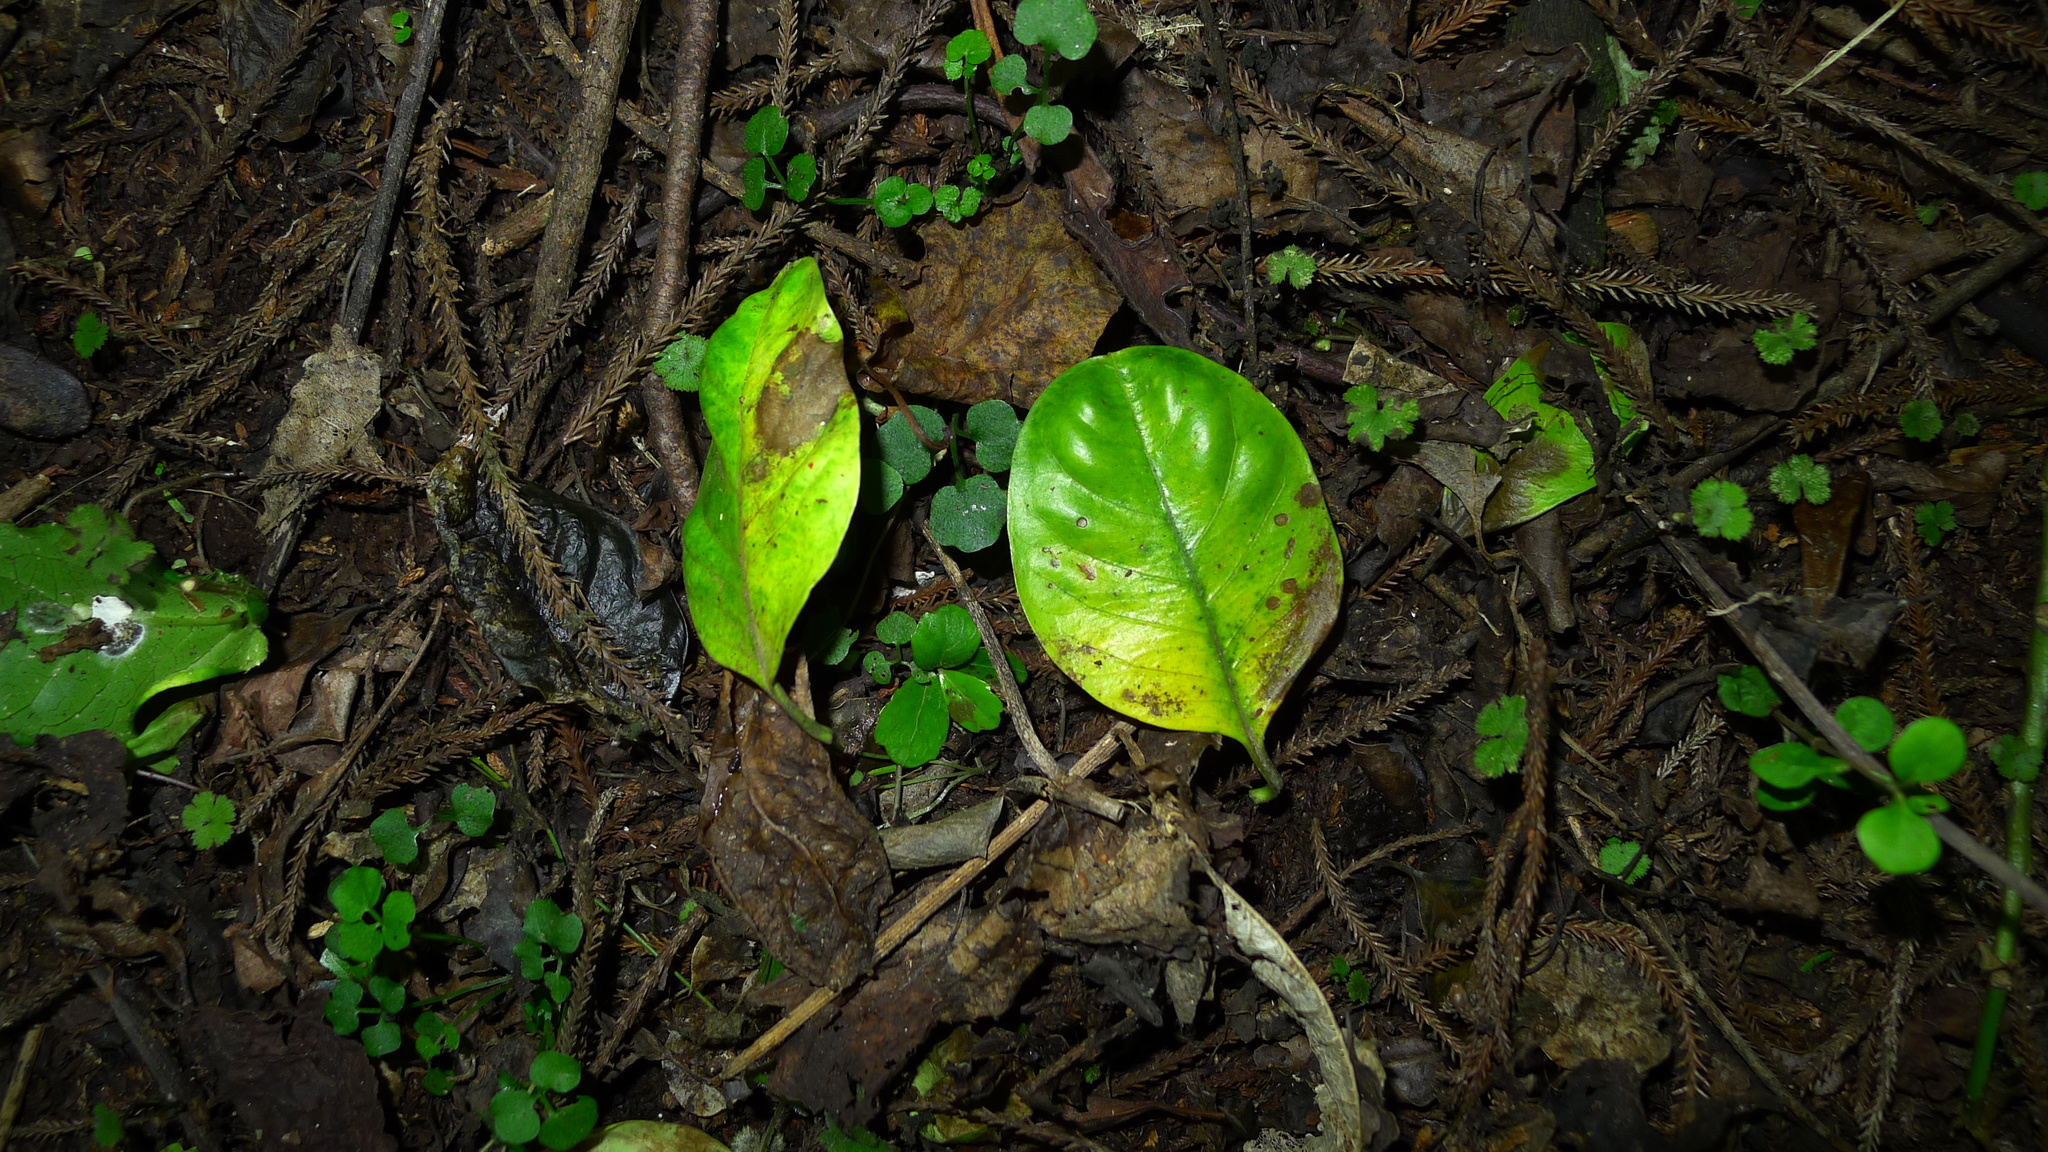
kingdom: Plantae
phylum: Tracheophyta
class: Magnoliopsida
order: Gentianales
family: Apocynaceae
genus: Parsonsia
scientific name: Parsonsia heterophylla
